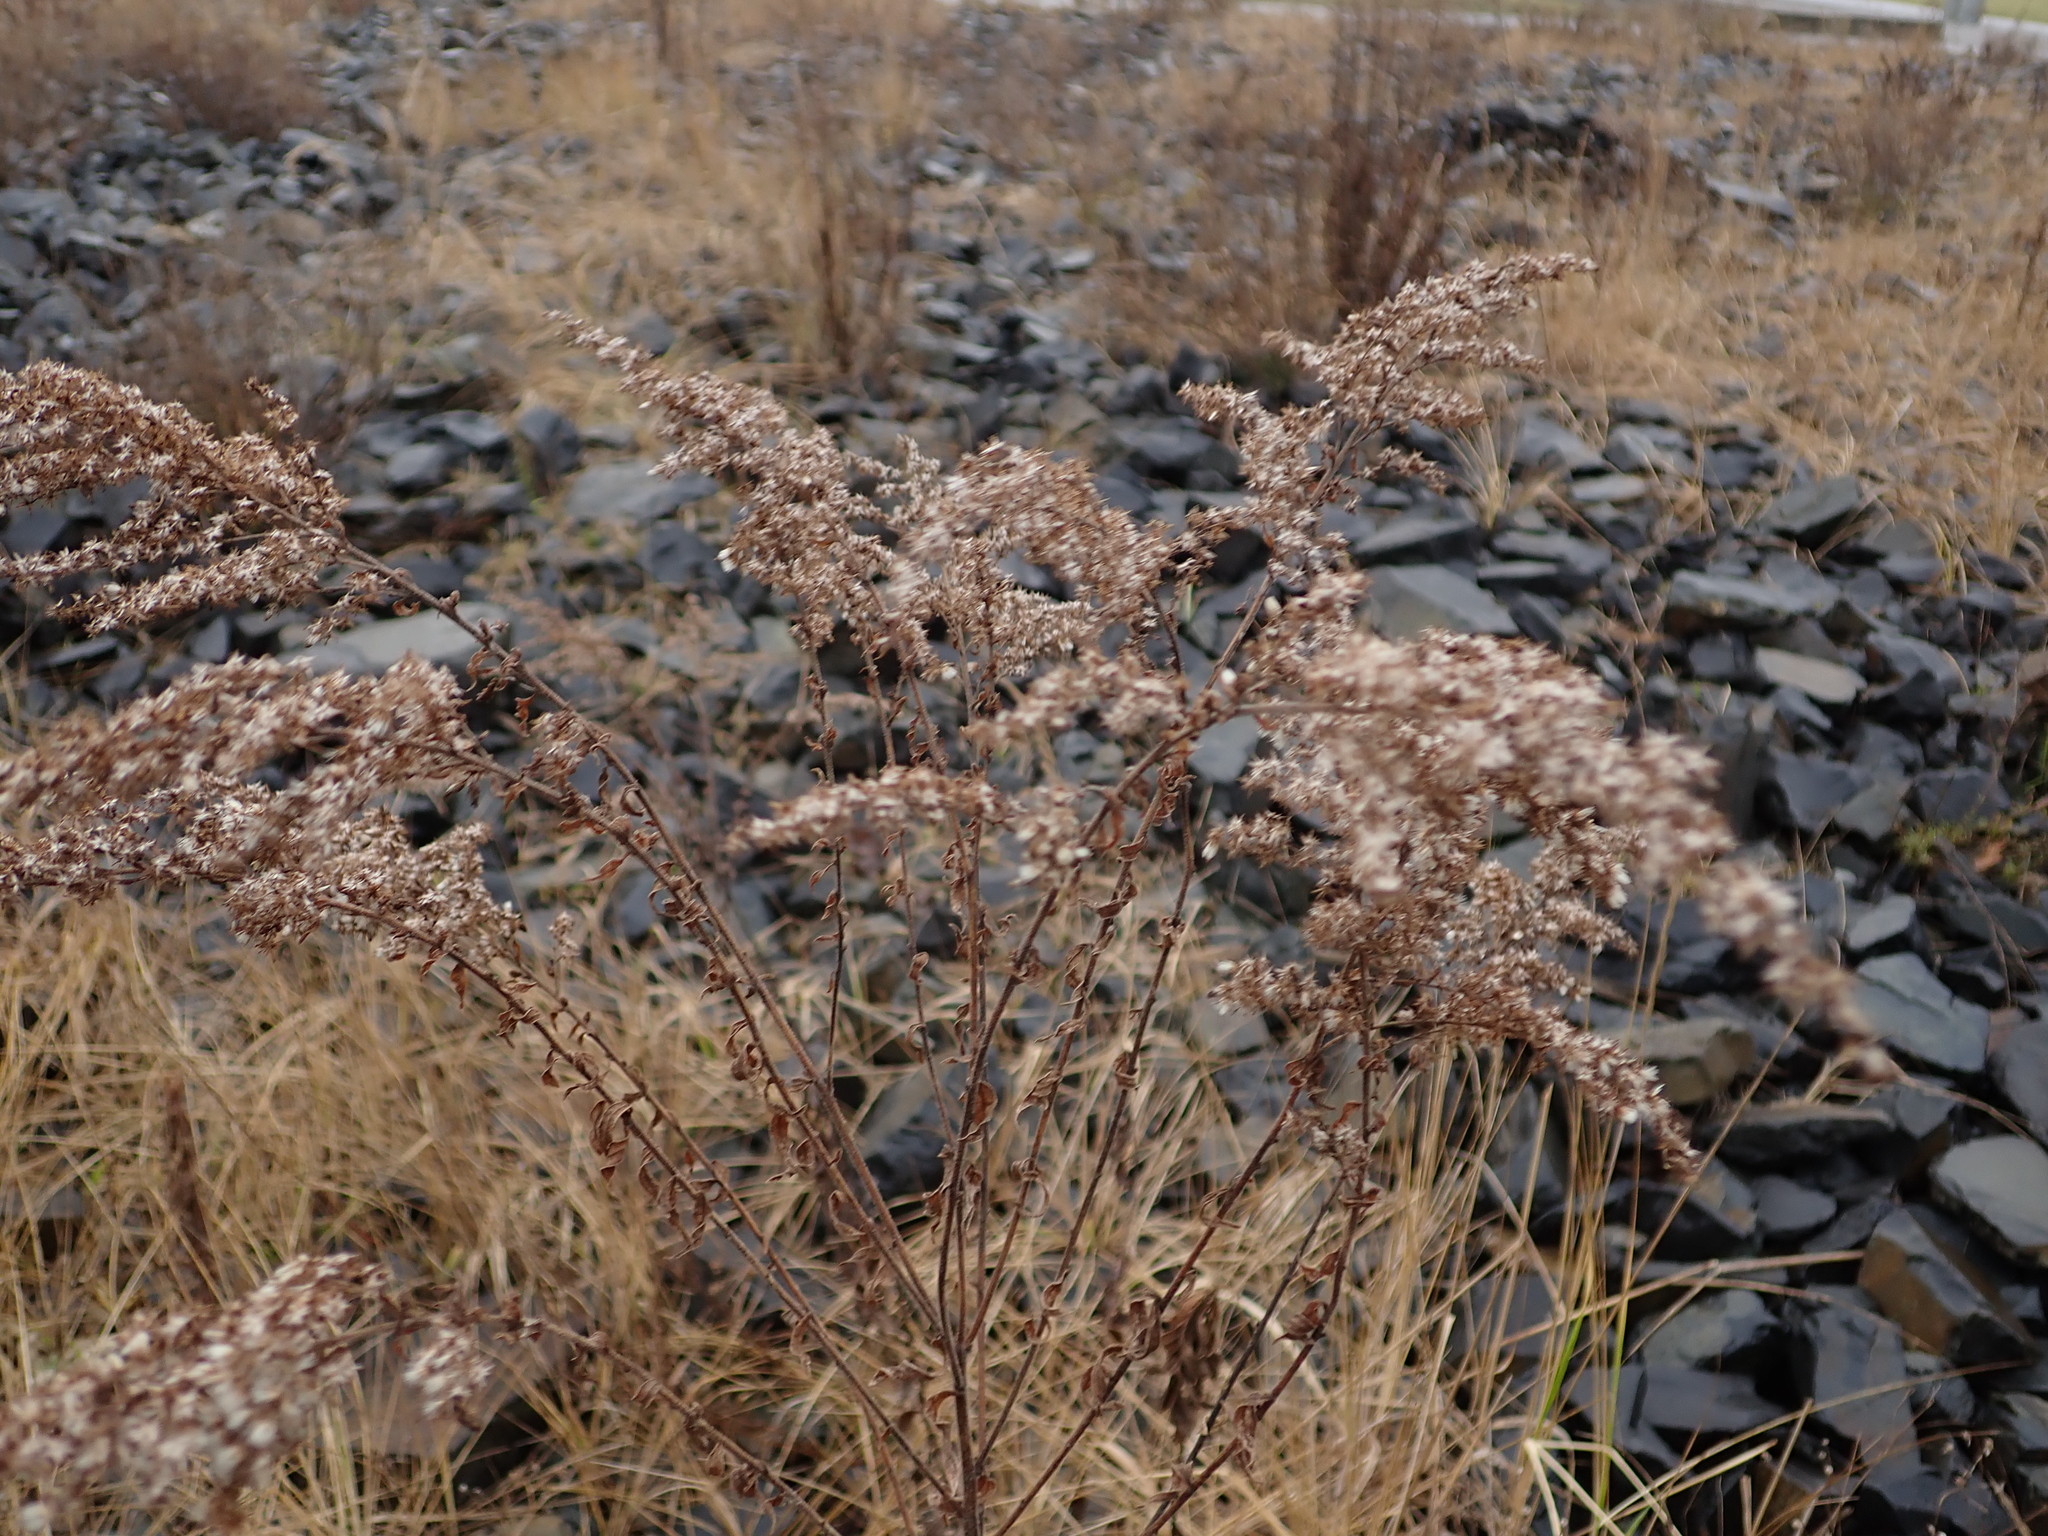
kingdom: Plantae
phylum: Tracheophyta
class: Magnoliopsida
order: Asterales
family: Asteraceae
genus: Solidago
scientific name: Solidago canadensis
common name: Canada goldenrod
